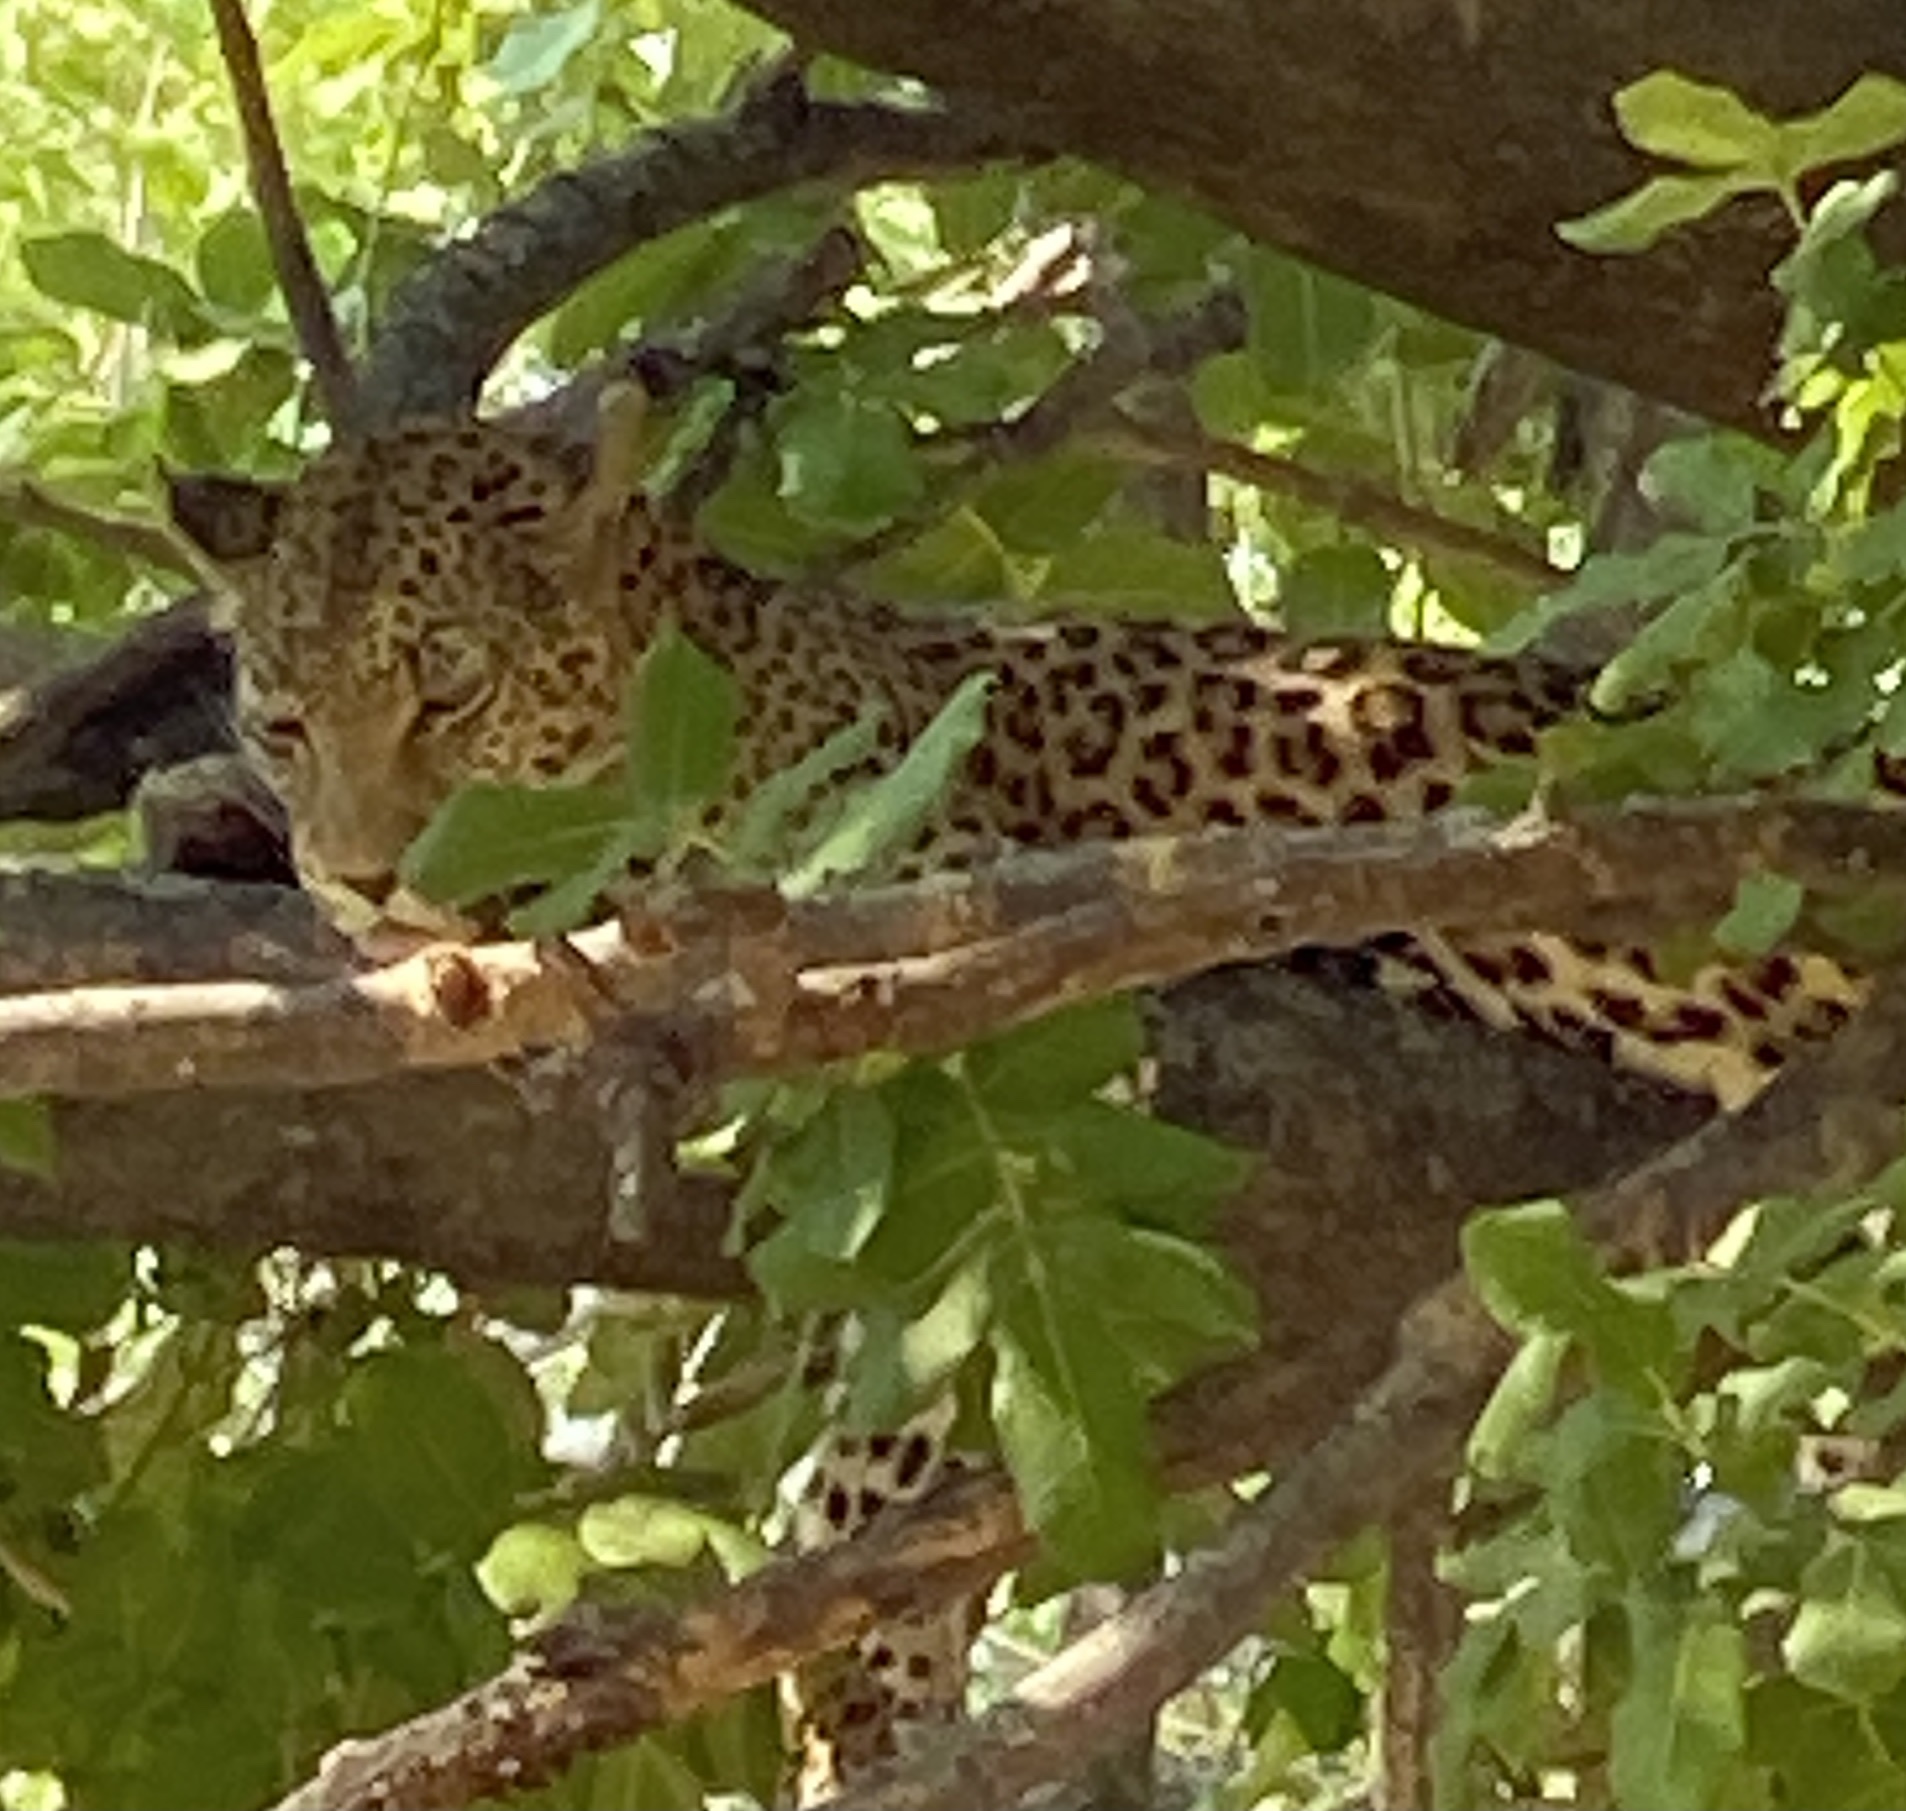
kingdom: Animalia
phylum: Chordata
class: Mammalia
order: Carnivora
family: Felidae
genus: Panthera
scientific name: Panthera pardus
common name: Leopard
